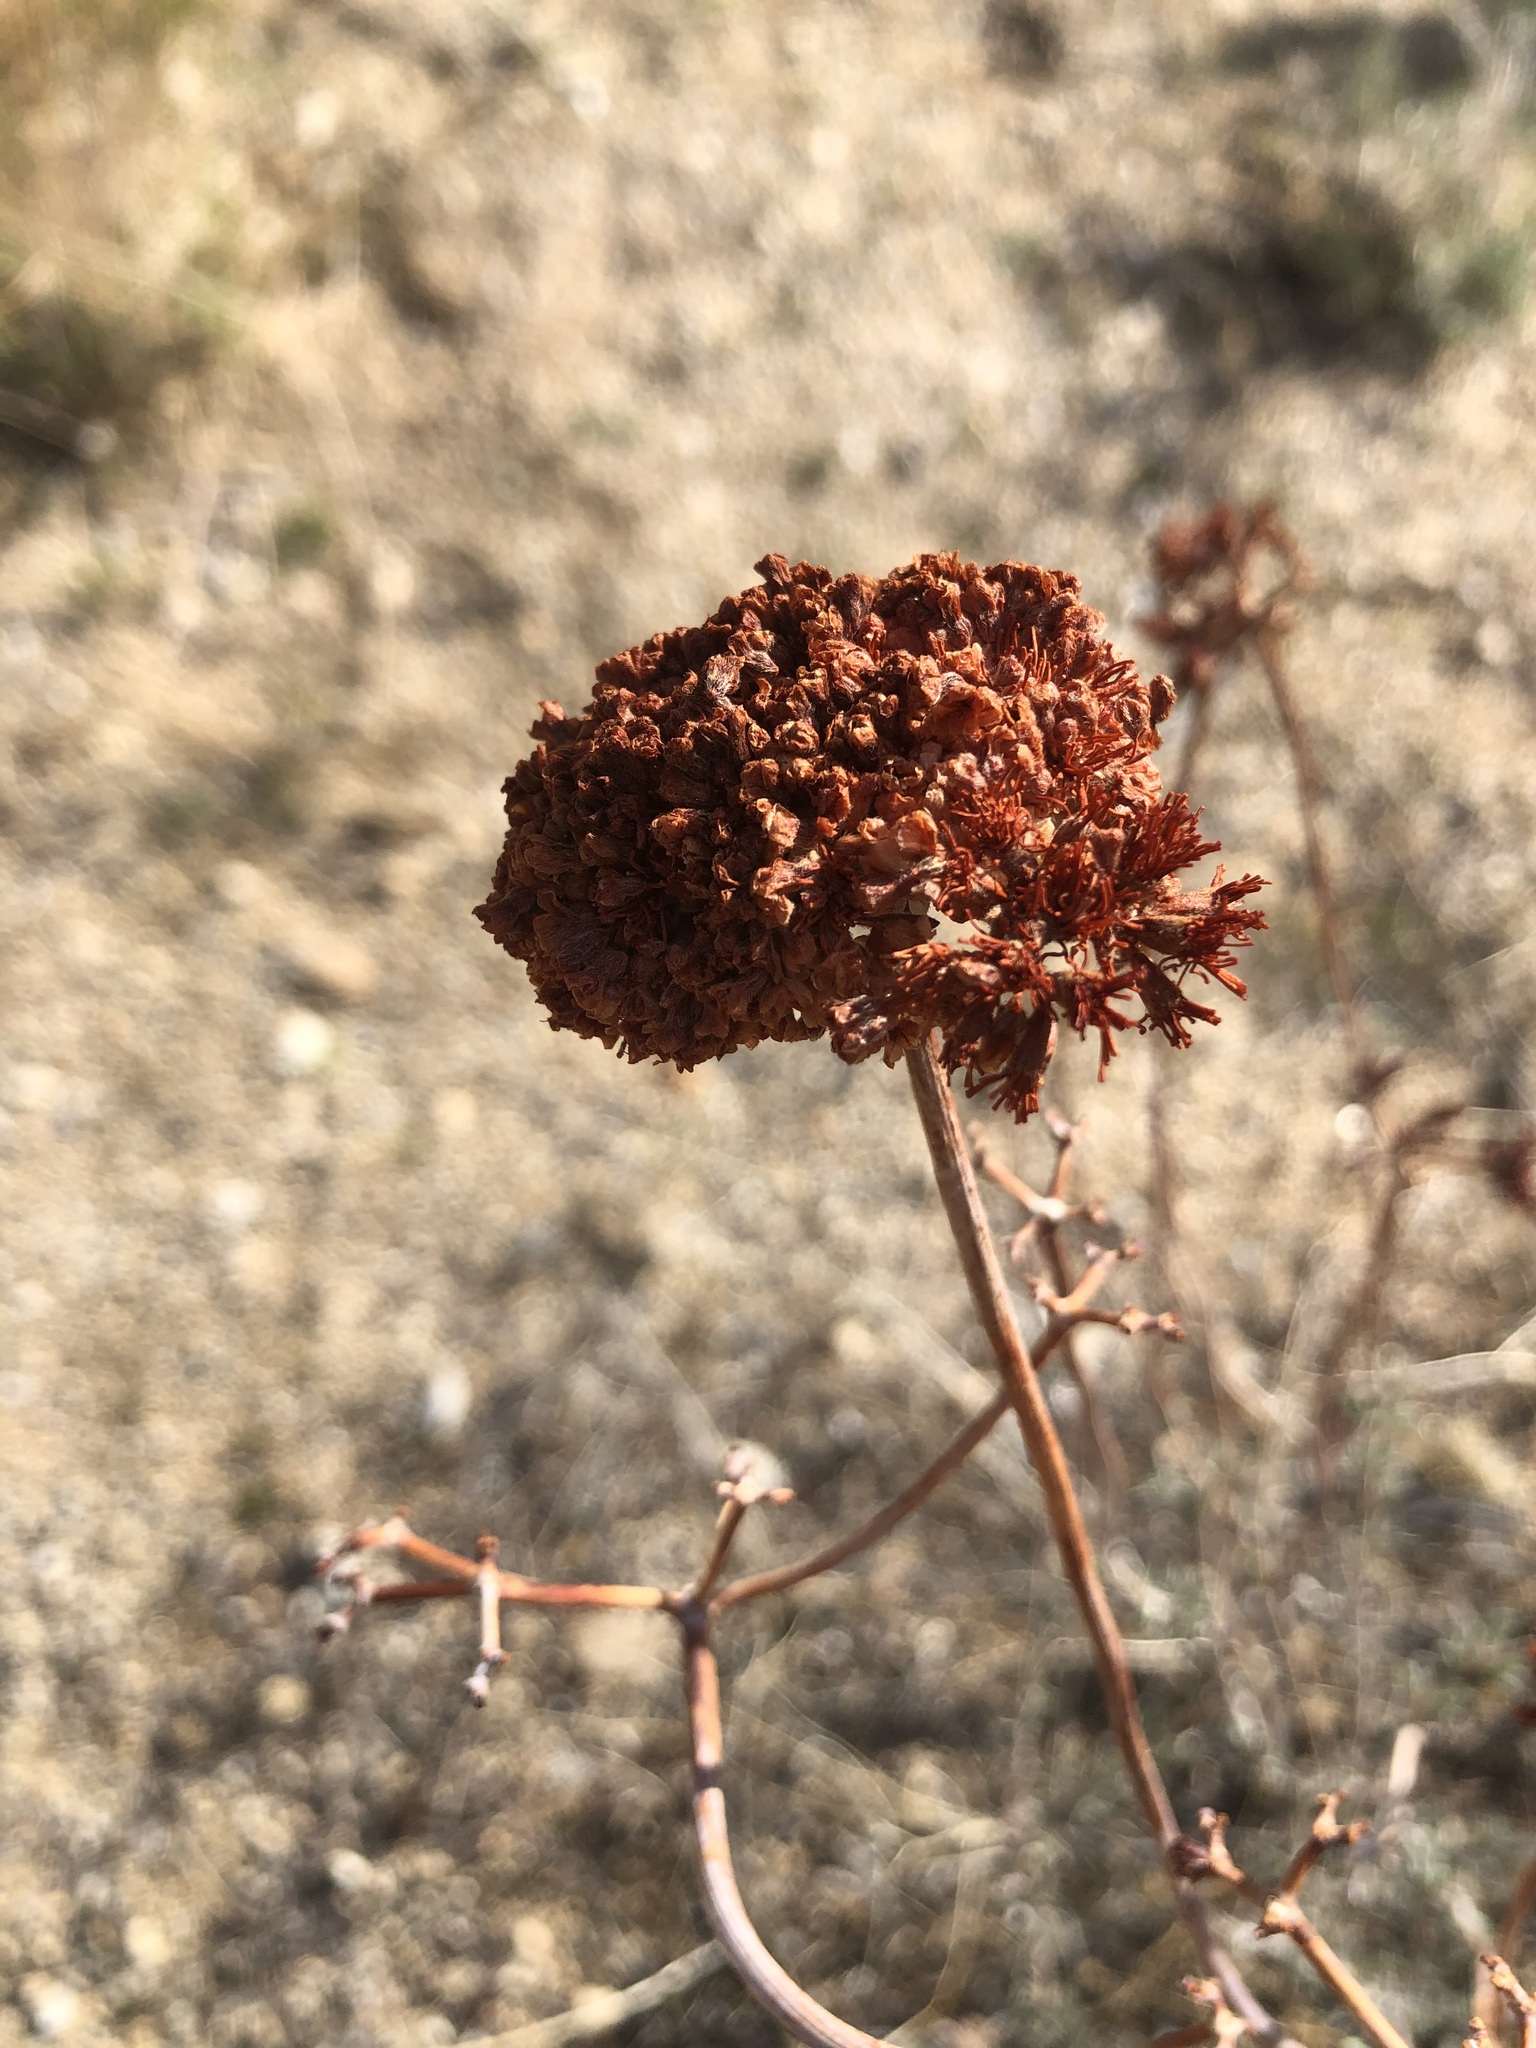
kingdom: Plantae
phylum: Tracheophyta
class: Magnoliopsida
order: Caryophyllales
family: Polygonaceae
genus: Eriogonum
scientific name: Eriogonum fasciculatum
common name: California wild buckwheat
